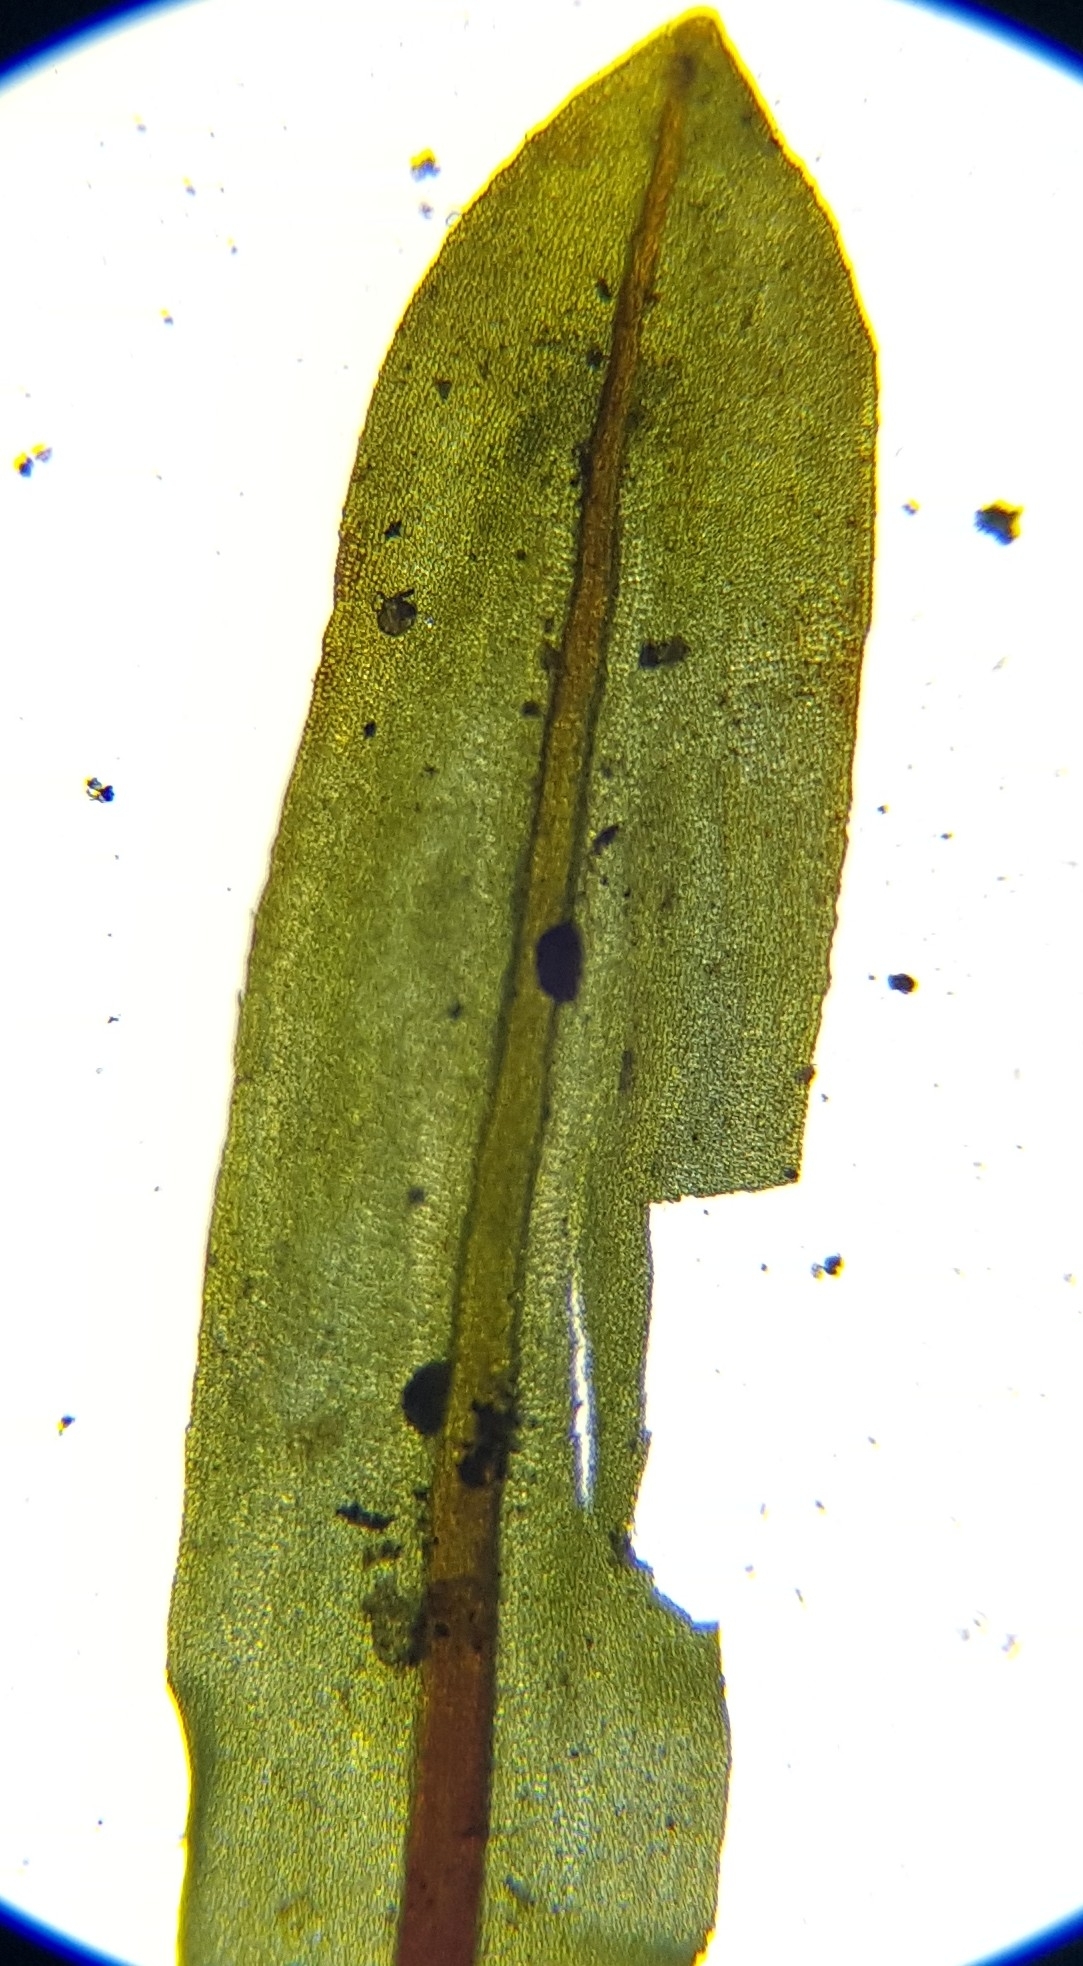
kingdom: Plantae
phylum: Bryophyta
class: Bryopsida
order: Encalyptales
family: Encalyptaceae
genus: Encalypta
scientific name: Encalypta streptocarpa
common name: Spiral extinguisher-moss
